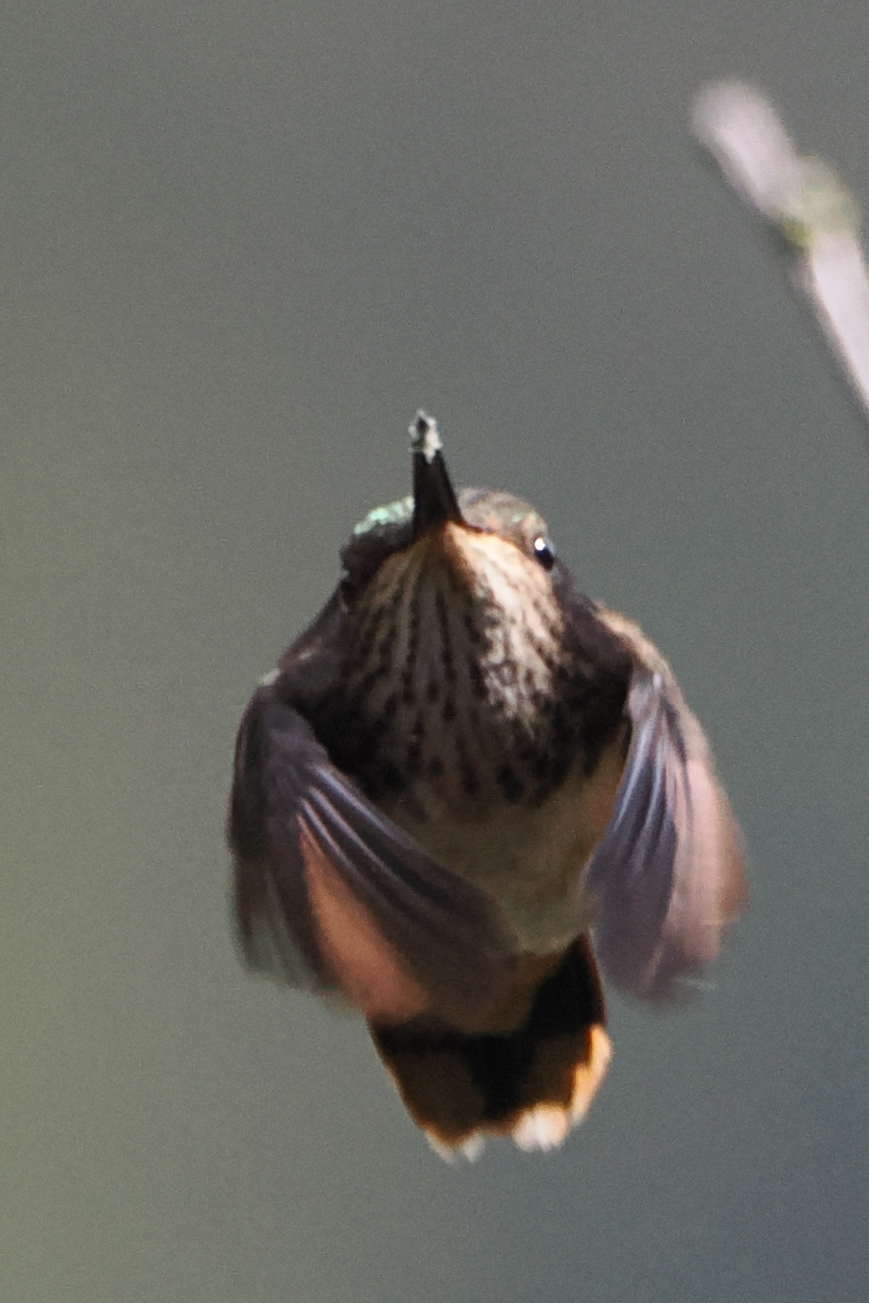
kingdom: Animalia
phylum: Chordata
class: Aves
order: Apodiformes
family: Trochilidae
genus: Selasphorus
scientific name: Selasphorus scintilla
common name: Scintillant hummingbird
